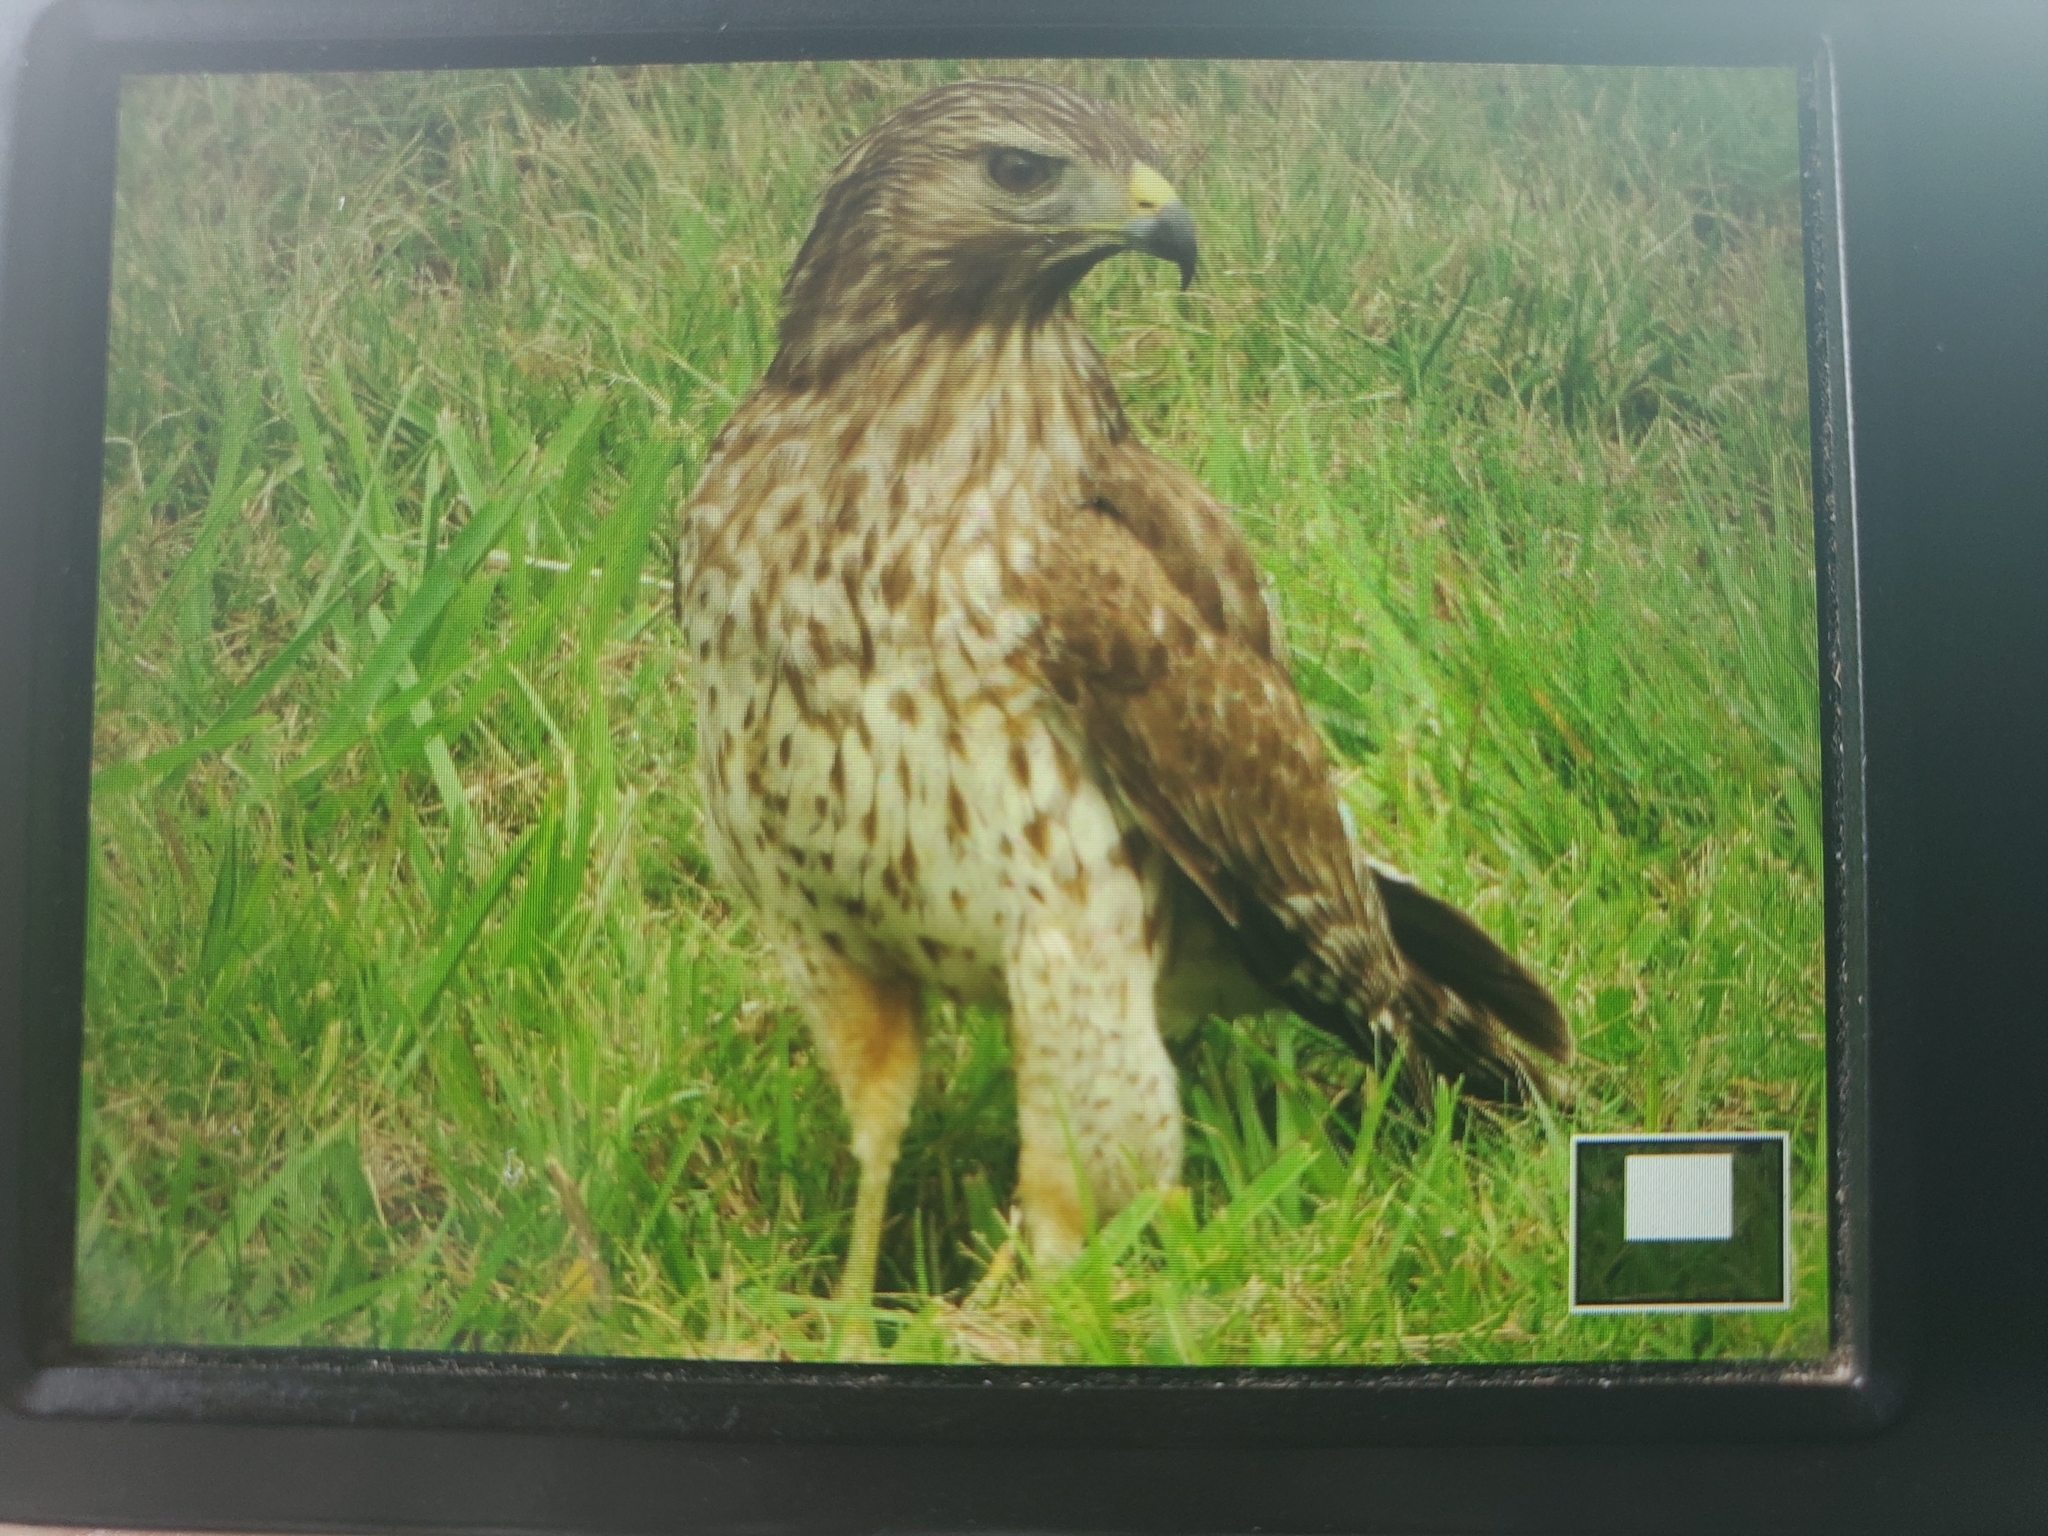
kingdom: Animalia
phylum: Chordata
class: Aves
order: Accipitriformes
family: Accipitridae
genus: Buteo
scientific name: Buteo lineatus
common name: Red-shouldered hawk
